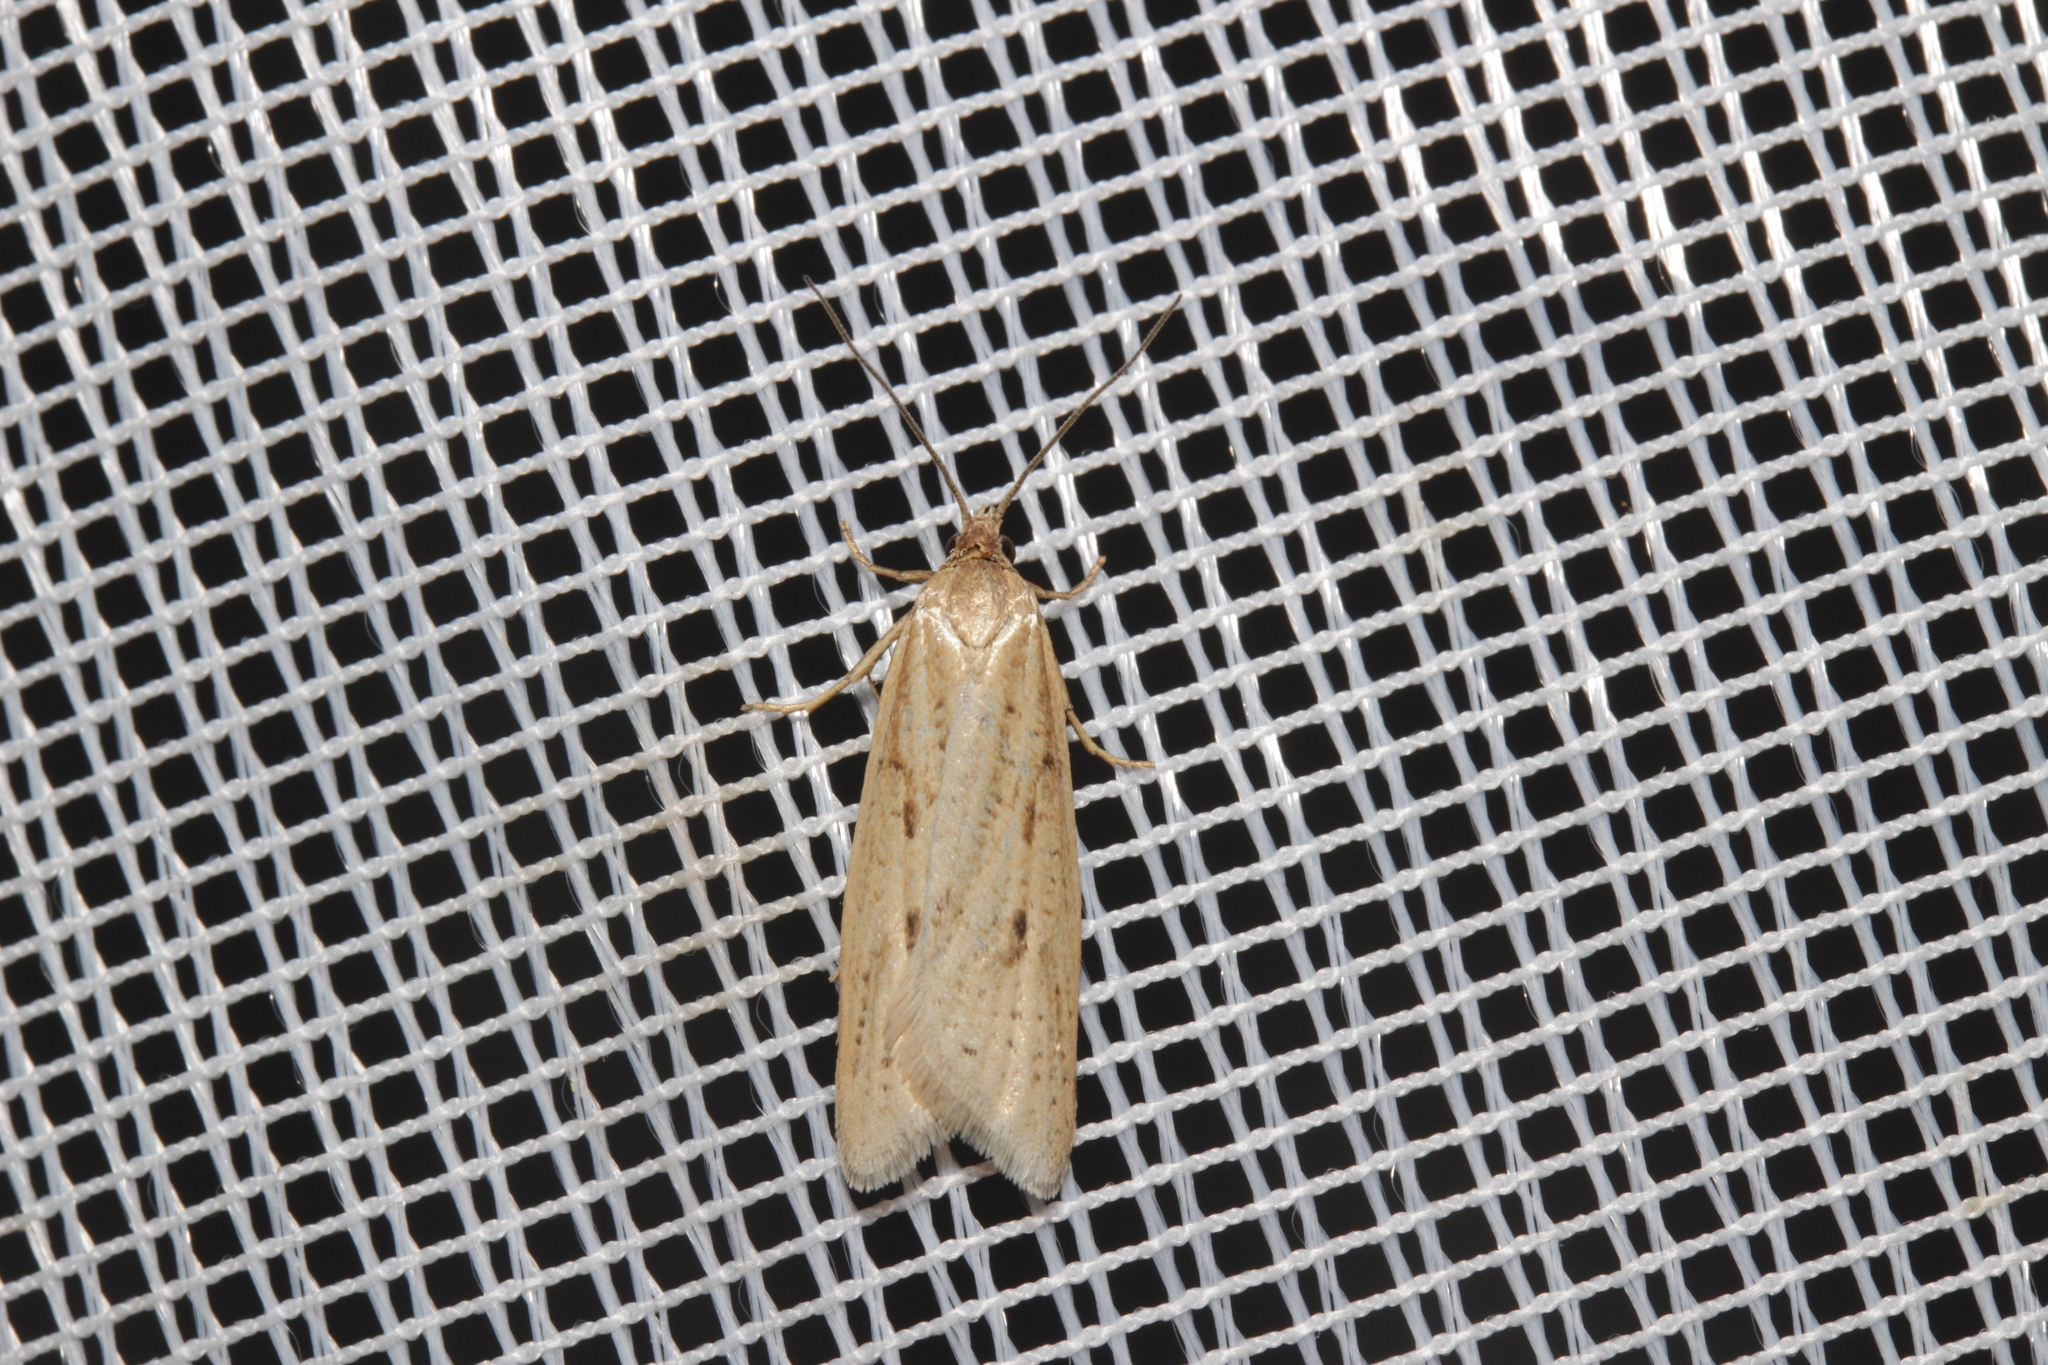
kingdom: Animalia
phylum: Arthropoda
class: Insecta
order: Lepidoptera
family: Tortricidae
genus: Eana
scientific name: Eana osseana
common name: Dotted shade
